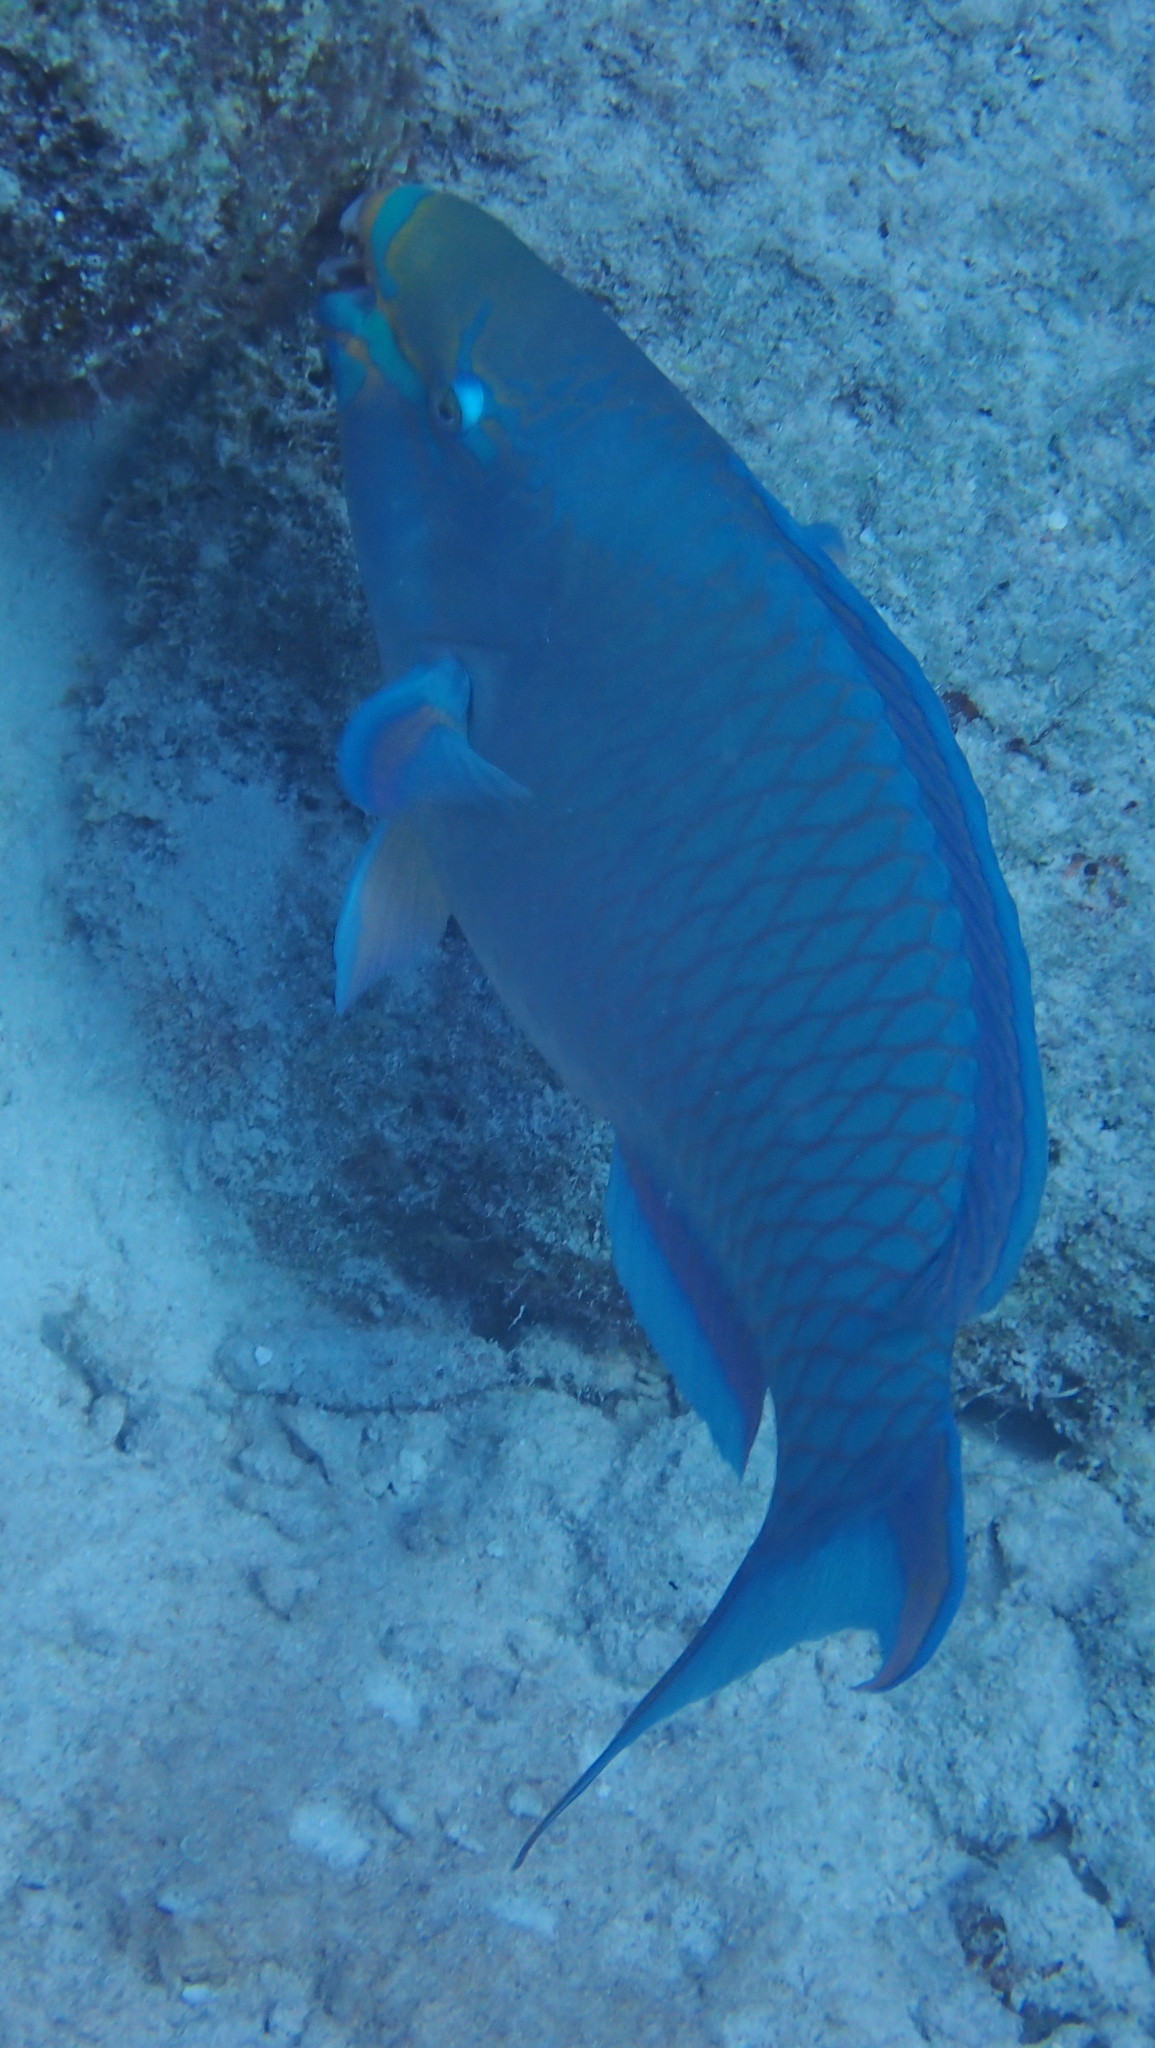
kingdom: Animalia
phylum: Chordata
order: Perciformes
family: Scaridae
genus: Scarus
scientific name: Scarus vetula
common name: Queen parrotfish
